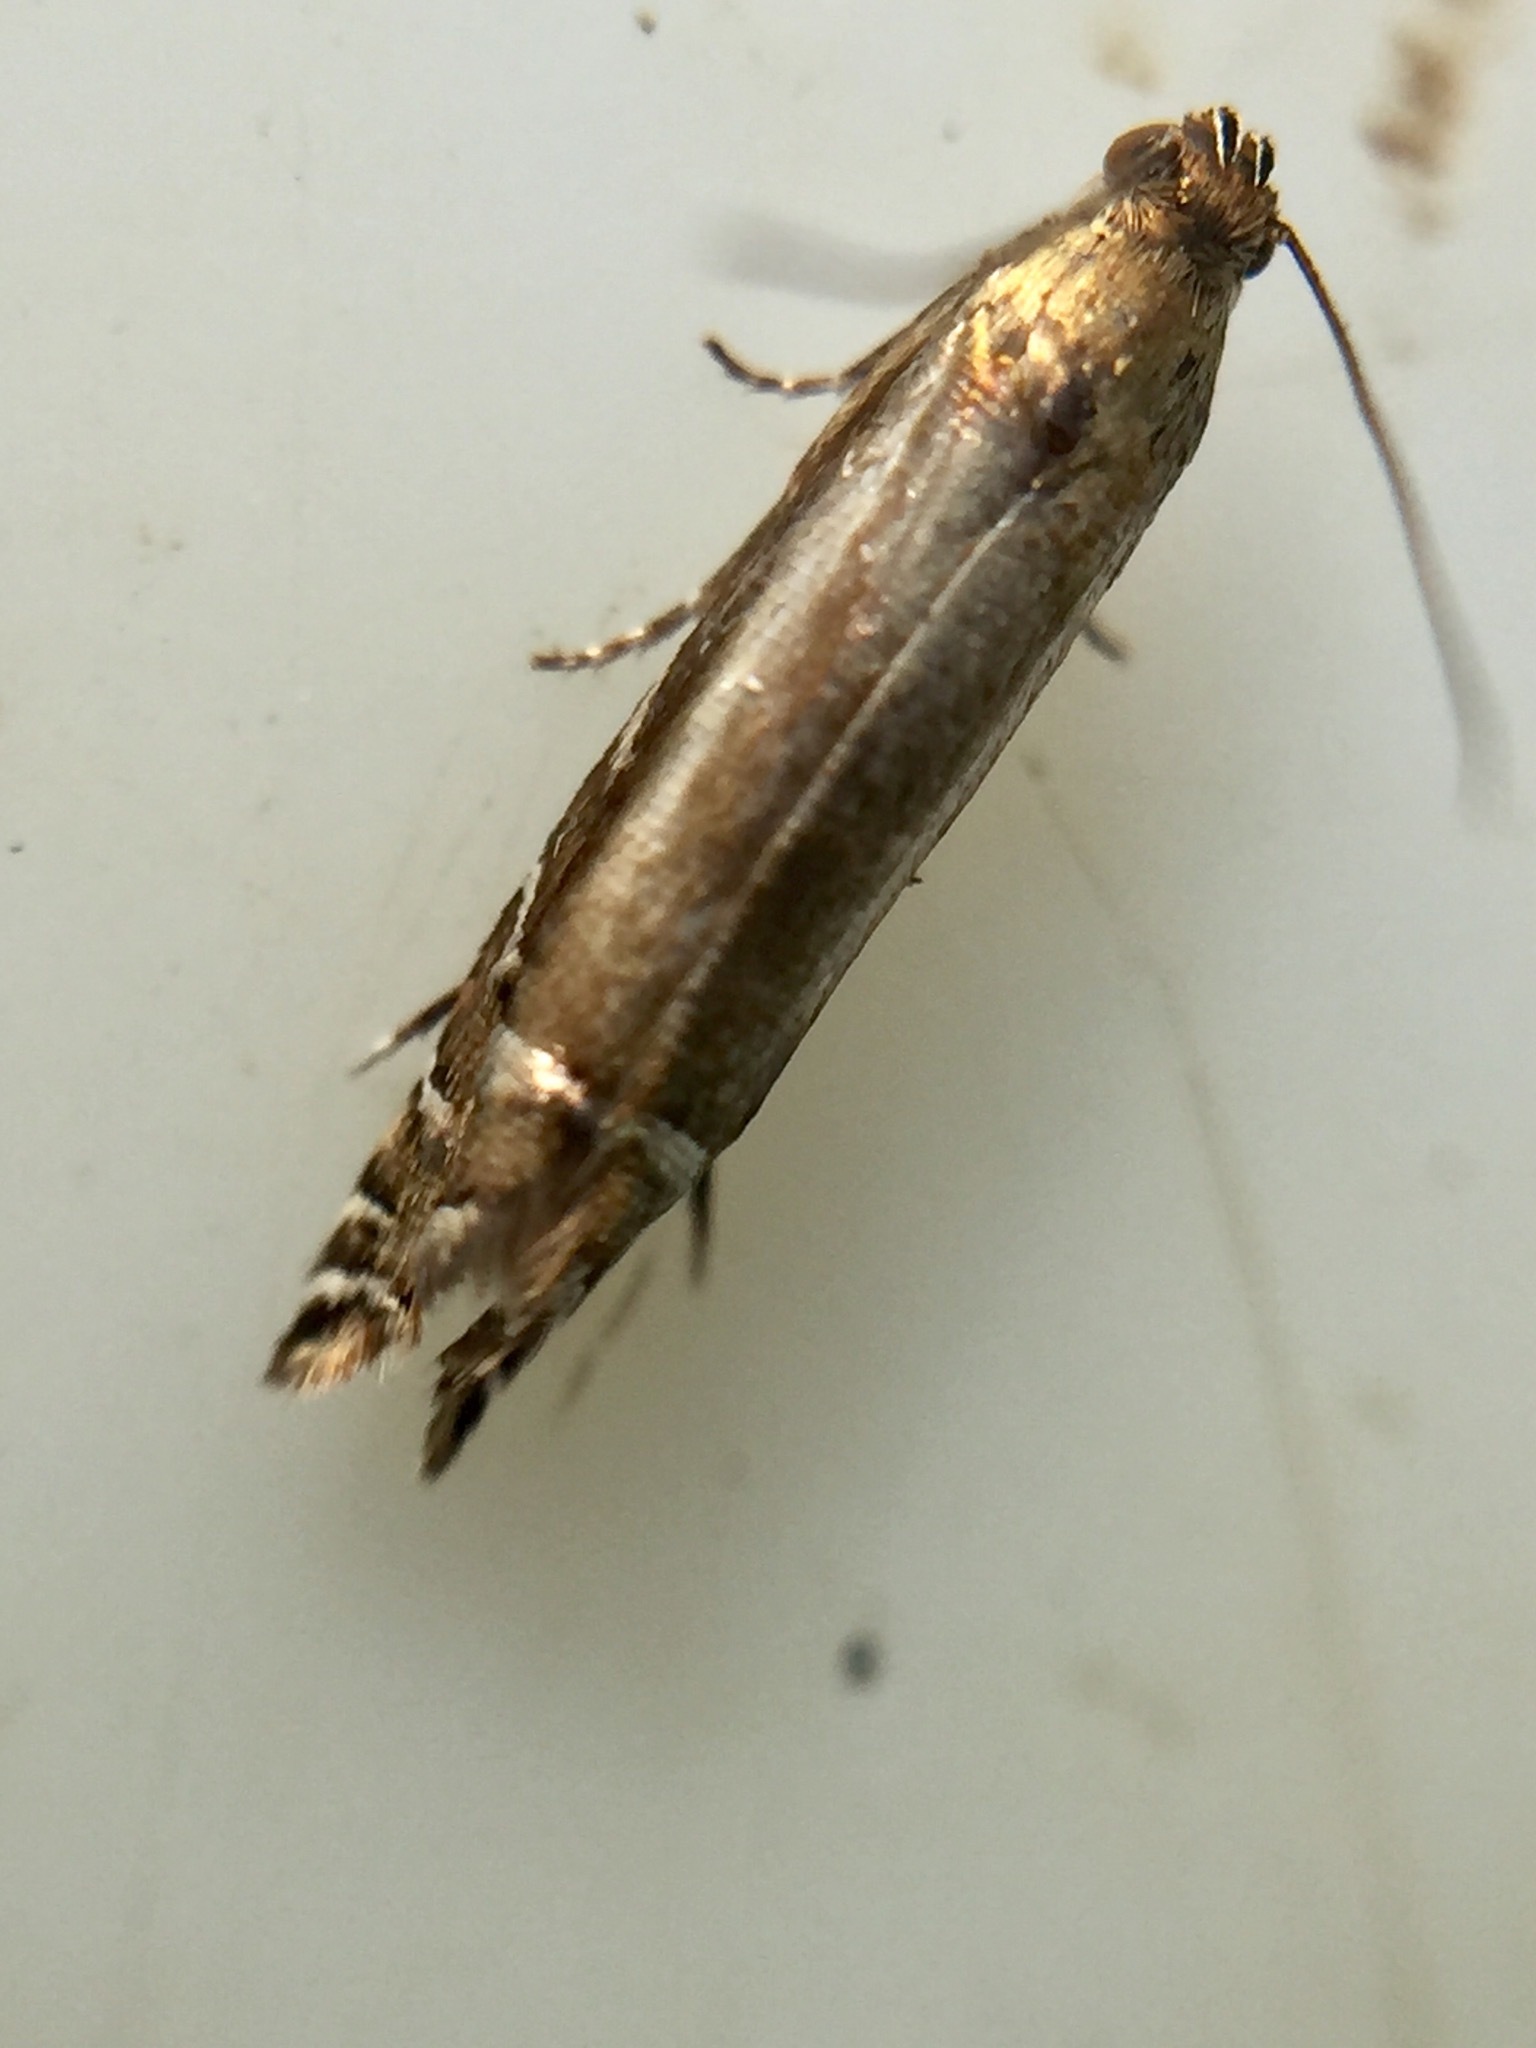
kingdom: Animalia
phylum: Arthropoda
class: Insecta
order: Lepidoptera
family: Glyphipterigidae
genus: Glyphipterix
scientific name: Glyphipterix scintilella
